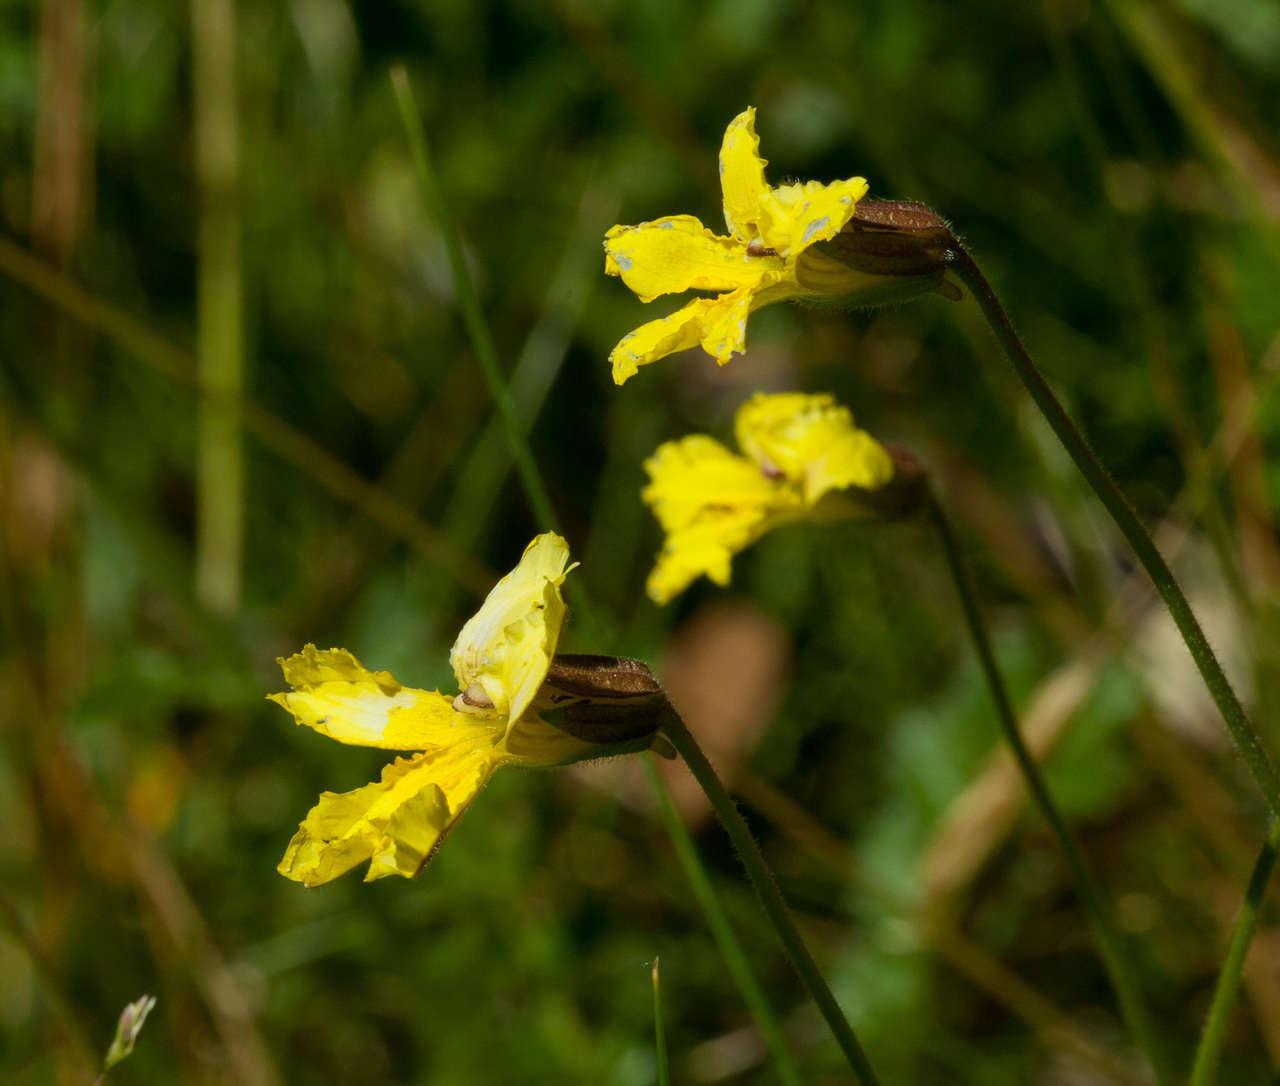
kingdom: Plantae
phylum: Tracheophyta
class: Magnoliopsida
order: Asterales
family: Goodeniaceae
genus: Goodenia
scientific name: Goodenia paradoxa
